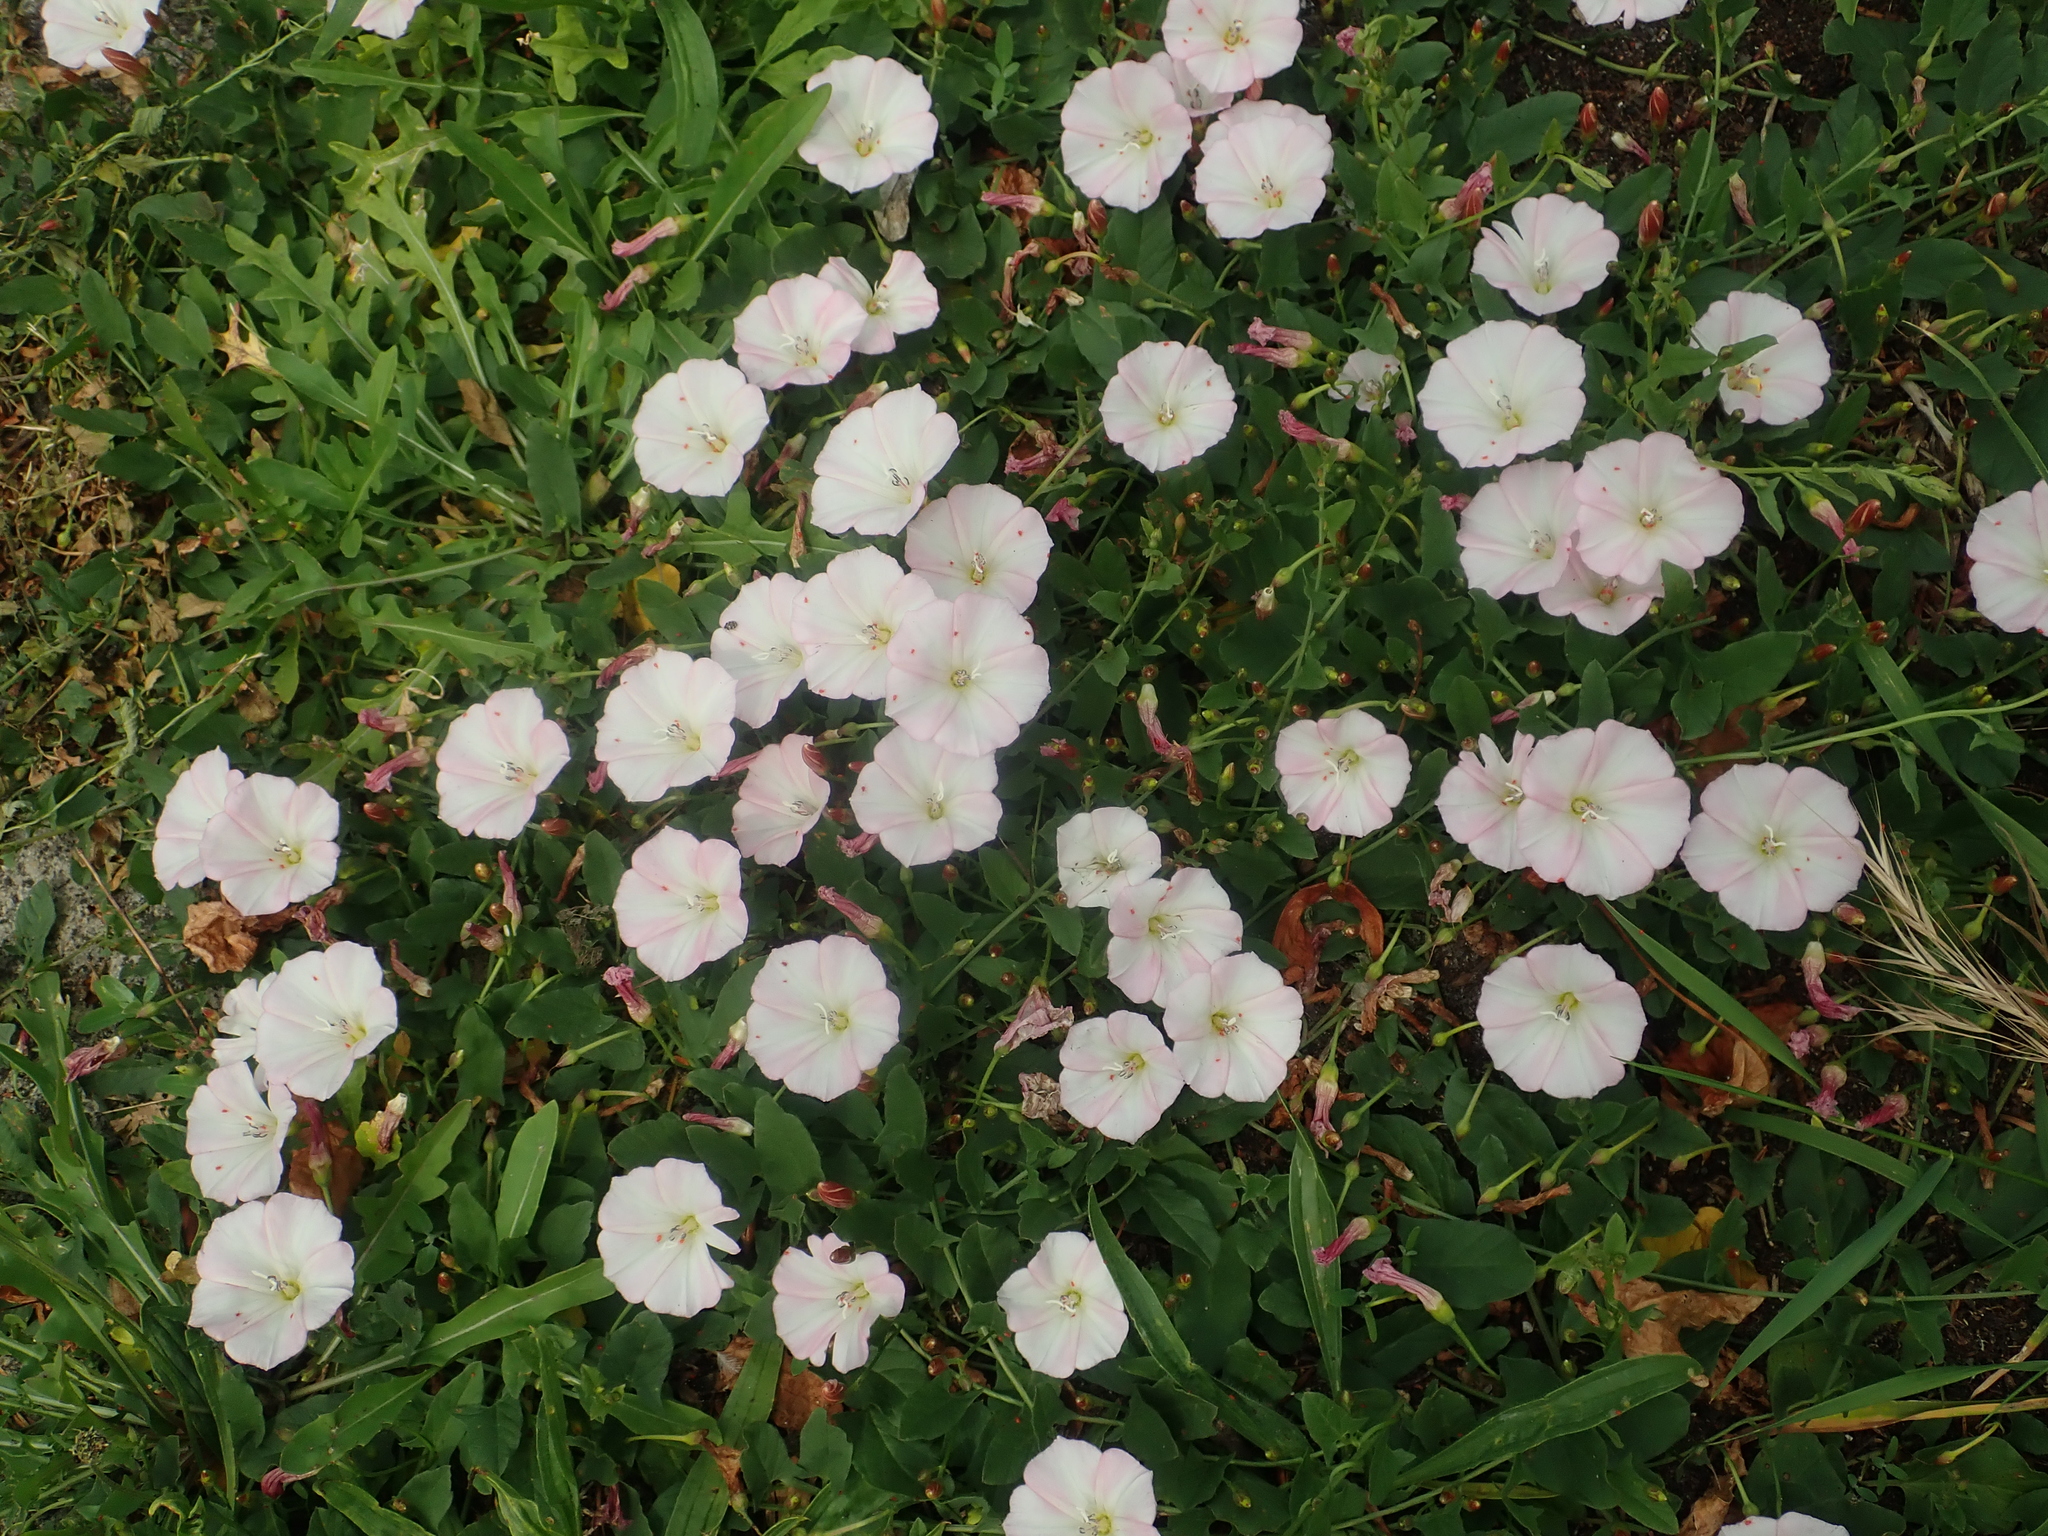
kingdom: Plantae
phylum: Tracheophyta
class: Magnoliopsida
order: Solanales
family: Convolvulaceae
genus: Convolvulus
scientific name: Convolvulus arvensis
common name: Field bindweed
